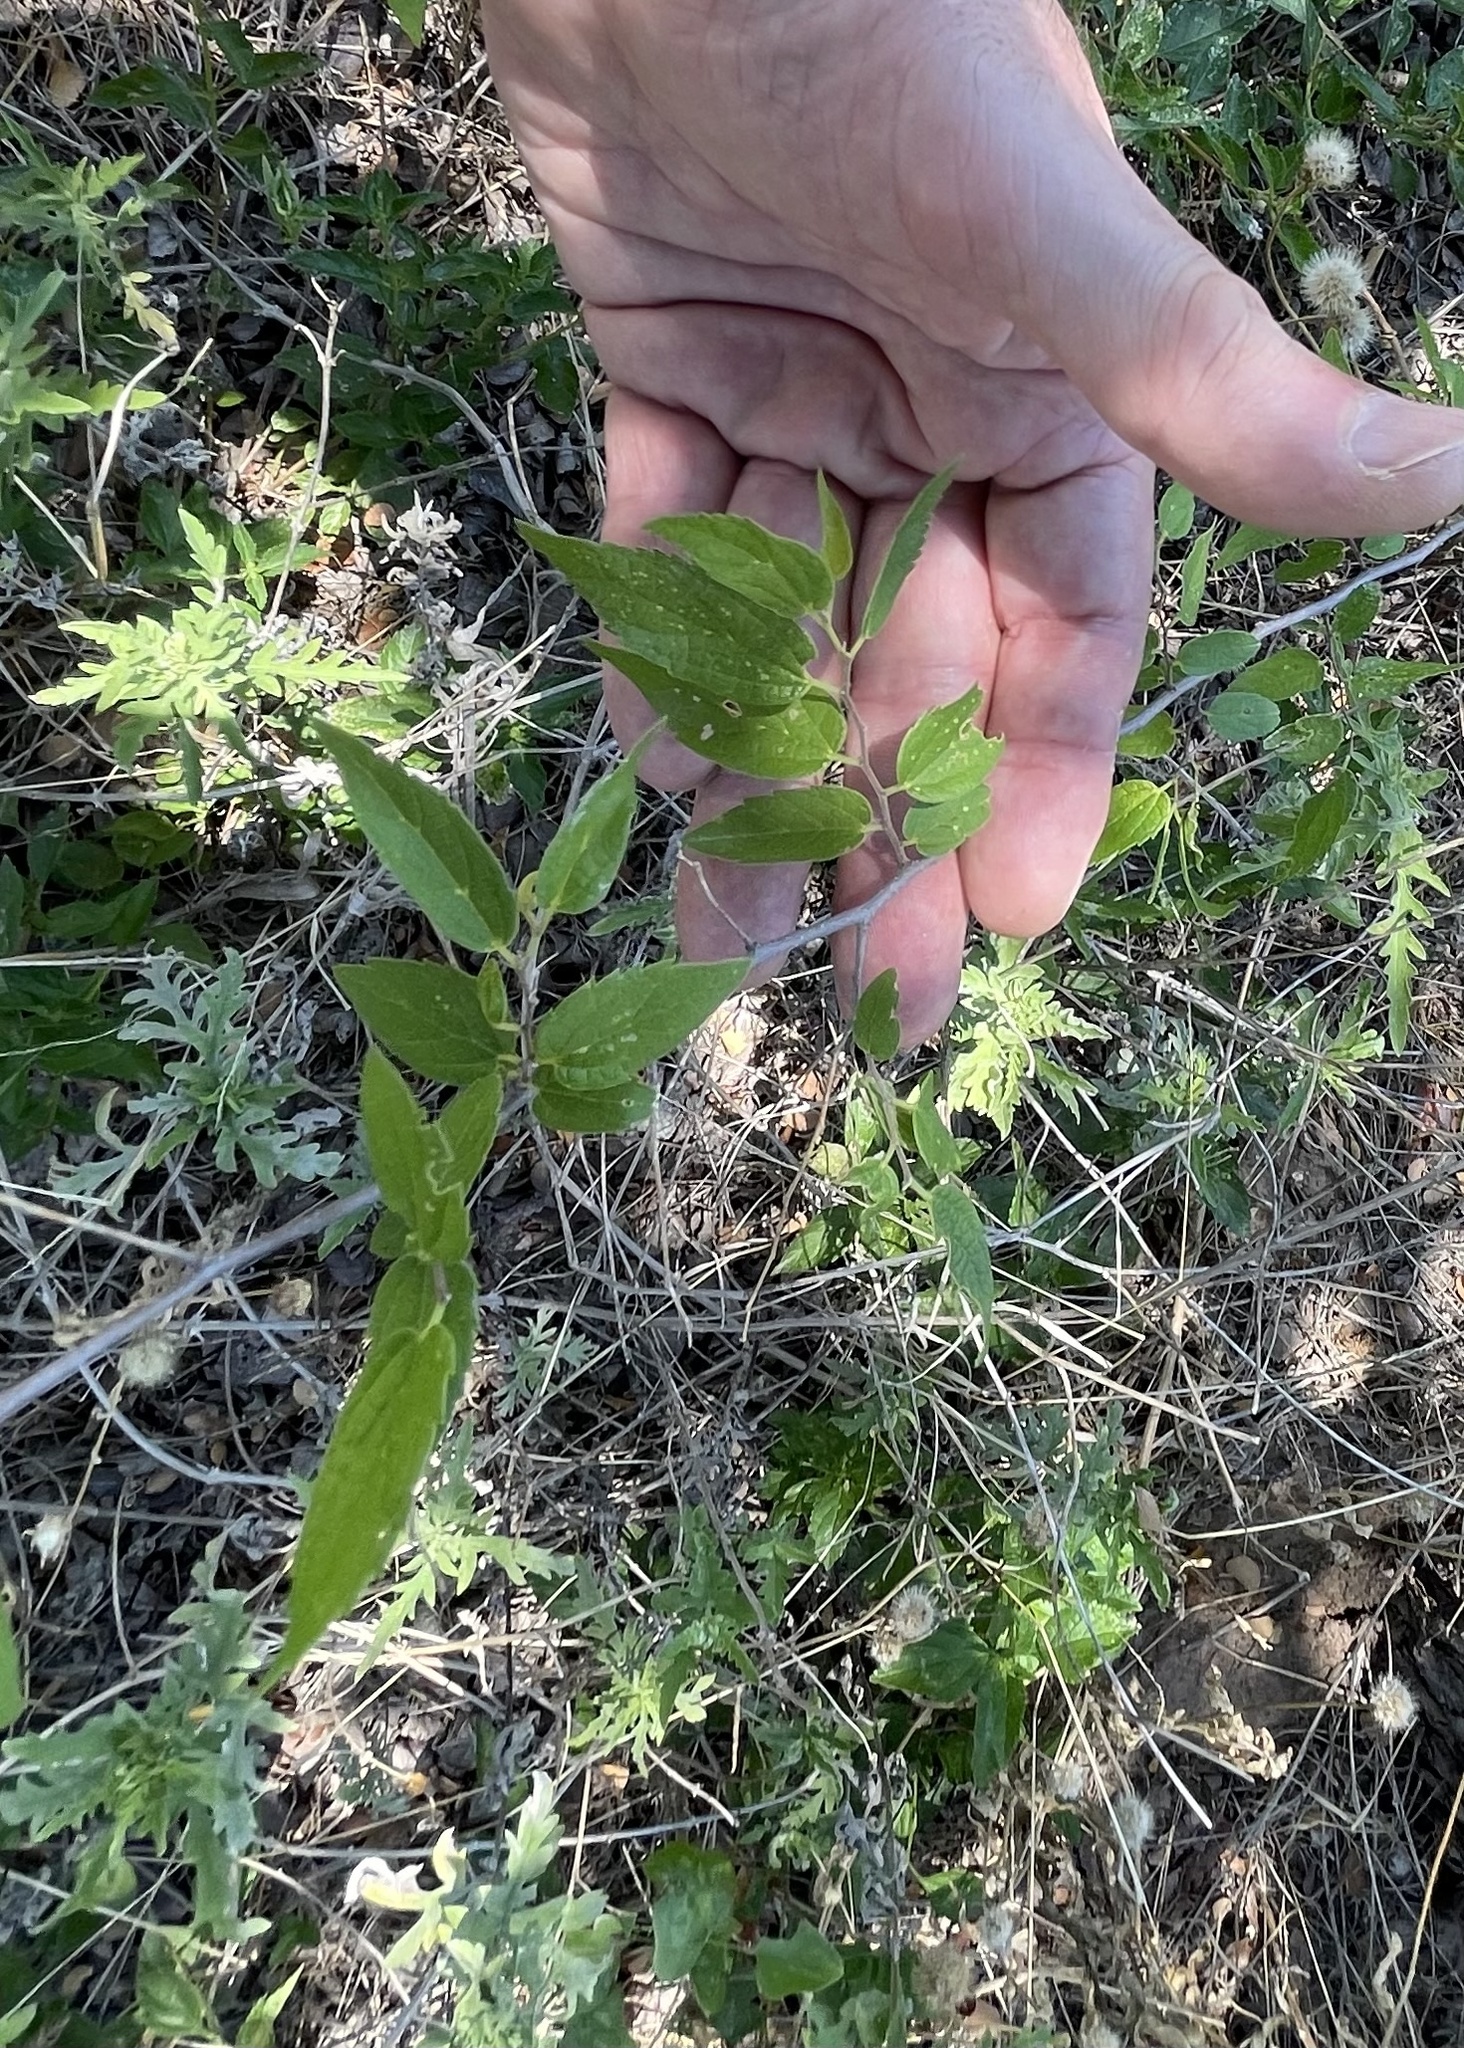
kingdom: Plantae
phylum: Tracheophyta
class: Magnoliopsida
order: Rosales
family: Cannabaceae
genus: Celtis
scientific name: Celtis laevigata
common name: Sugarberry
